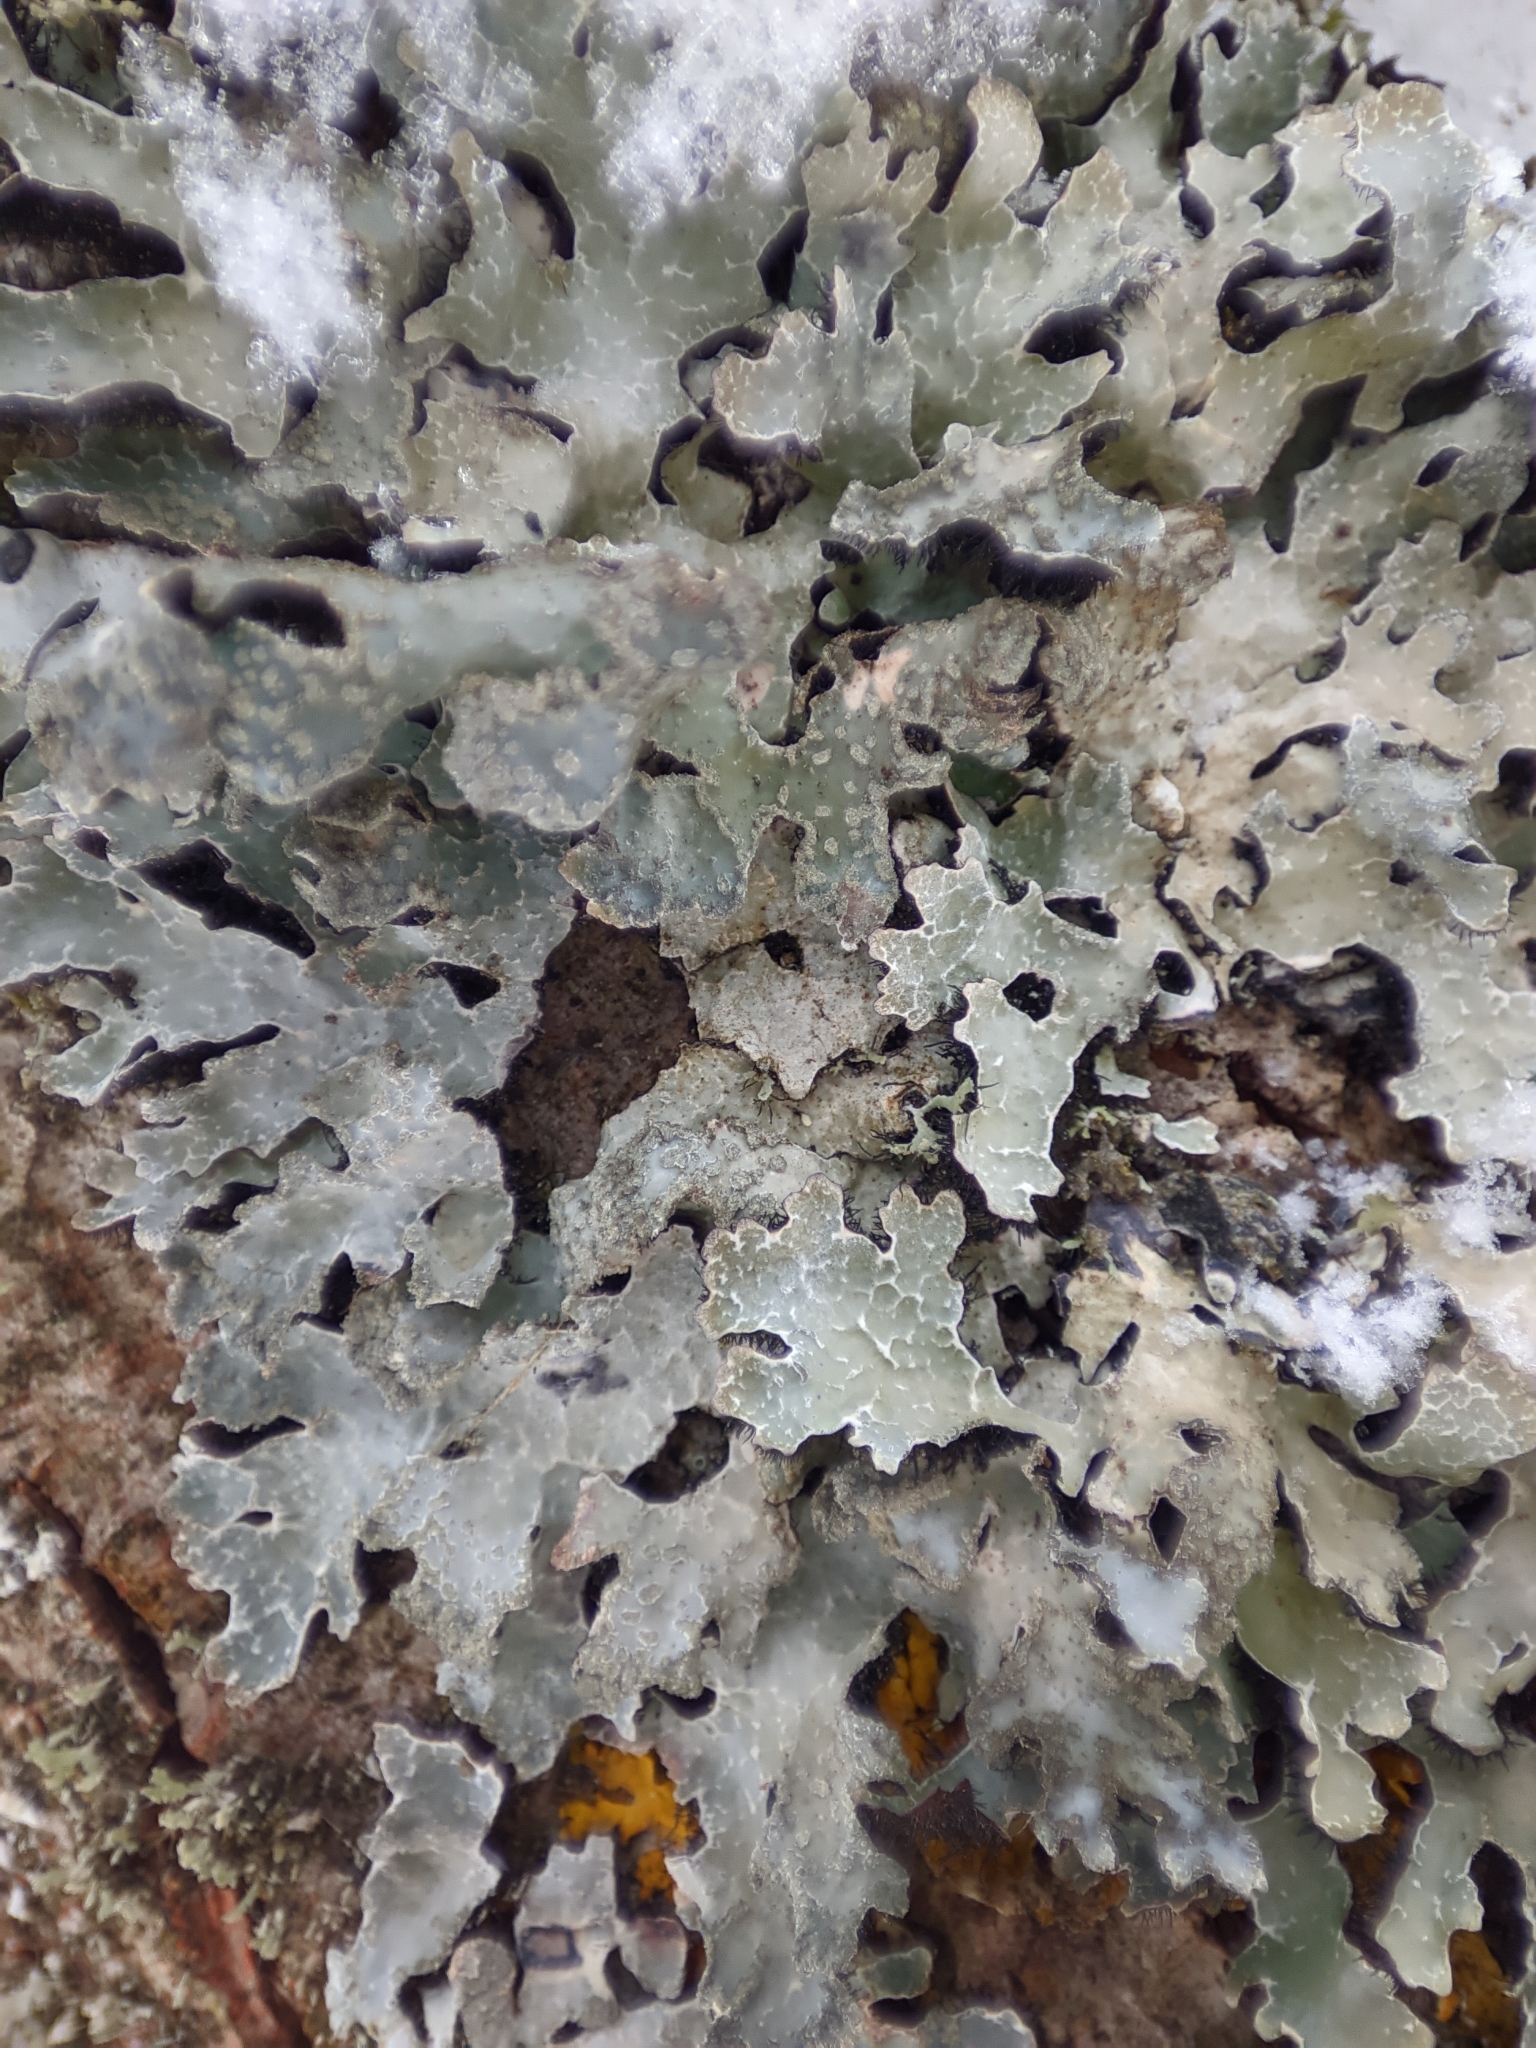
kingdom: Fungi
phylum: Ascomycota
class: Lecanoromycetes
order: Lecanorales
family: Parmeliaceae
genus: Parmelia
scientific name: Parmelia sulcata
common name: Netted shield lichen
